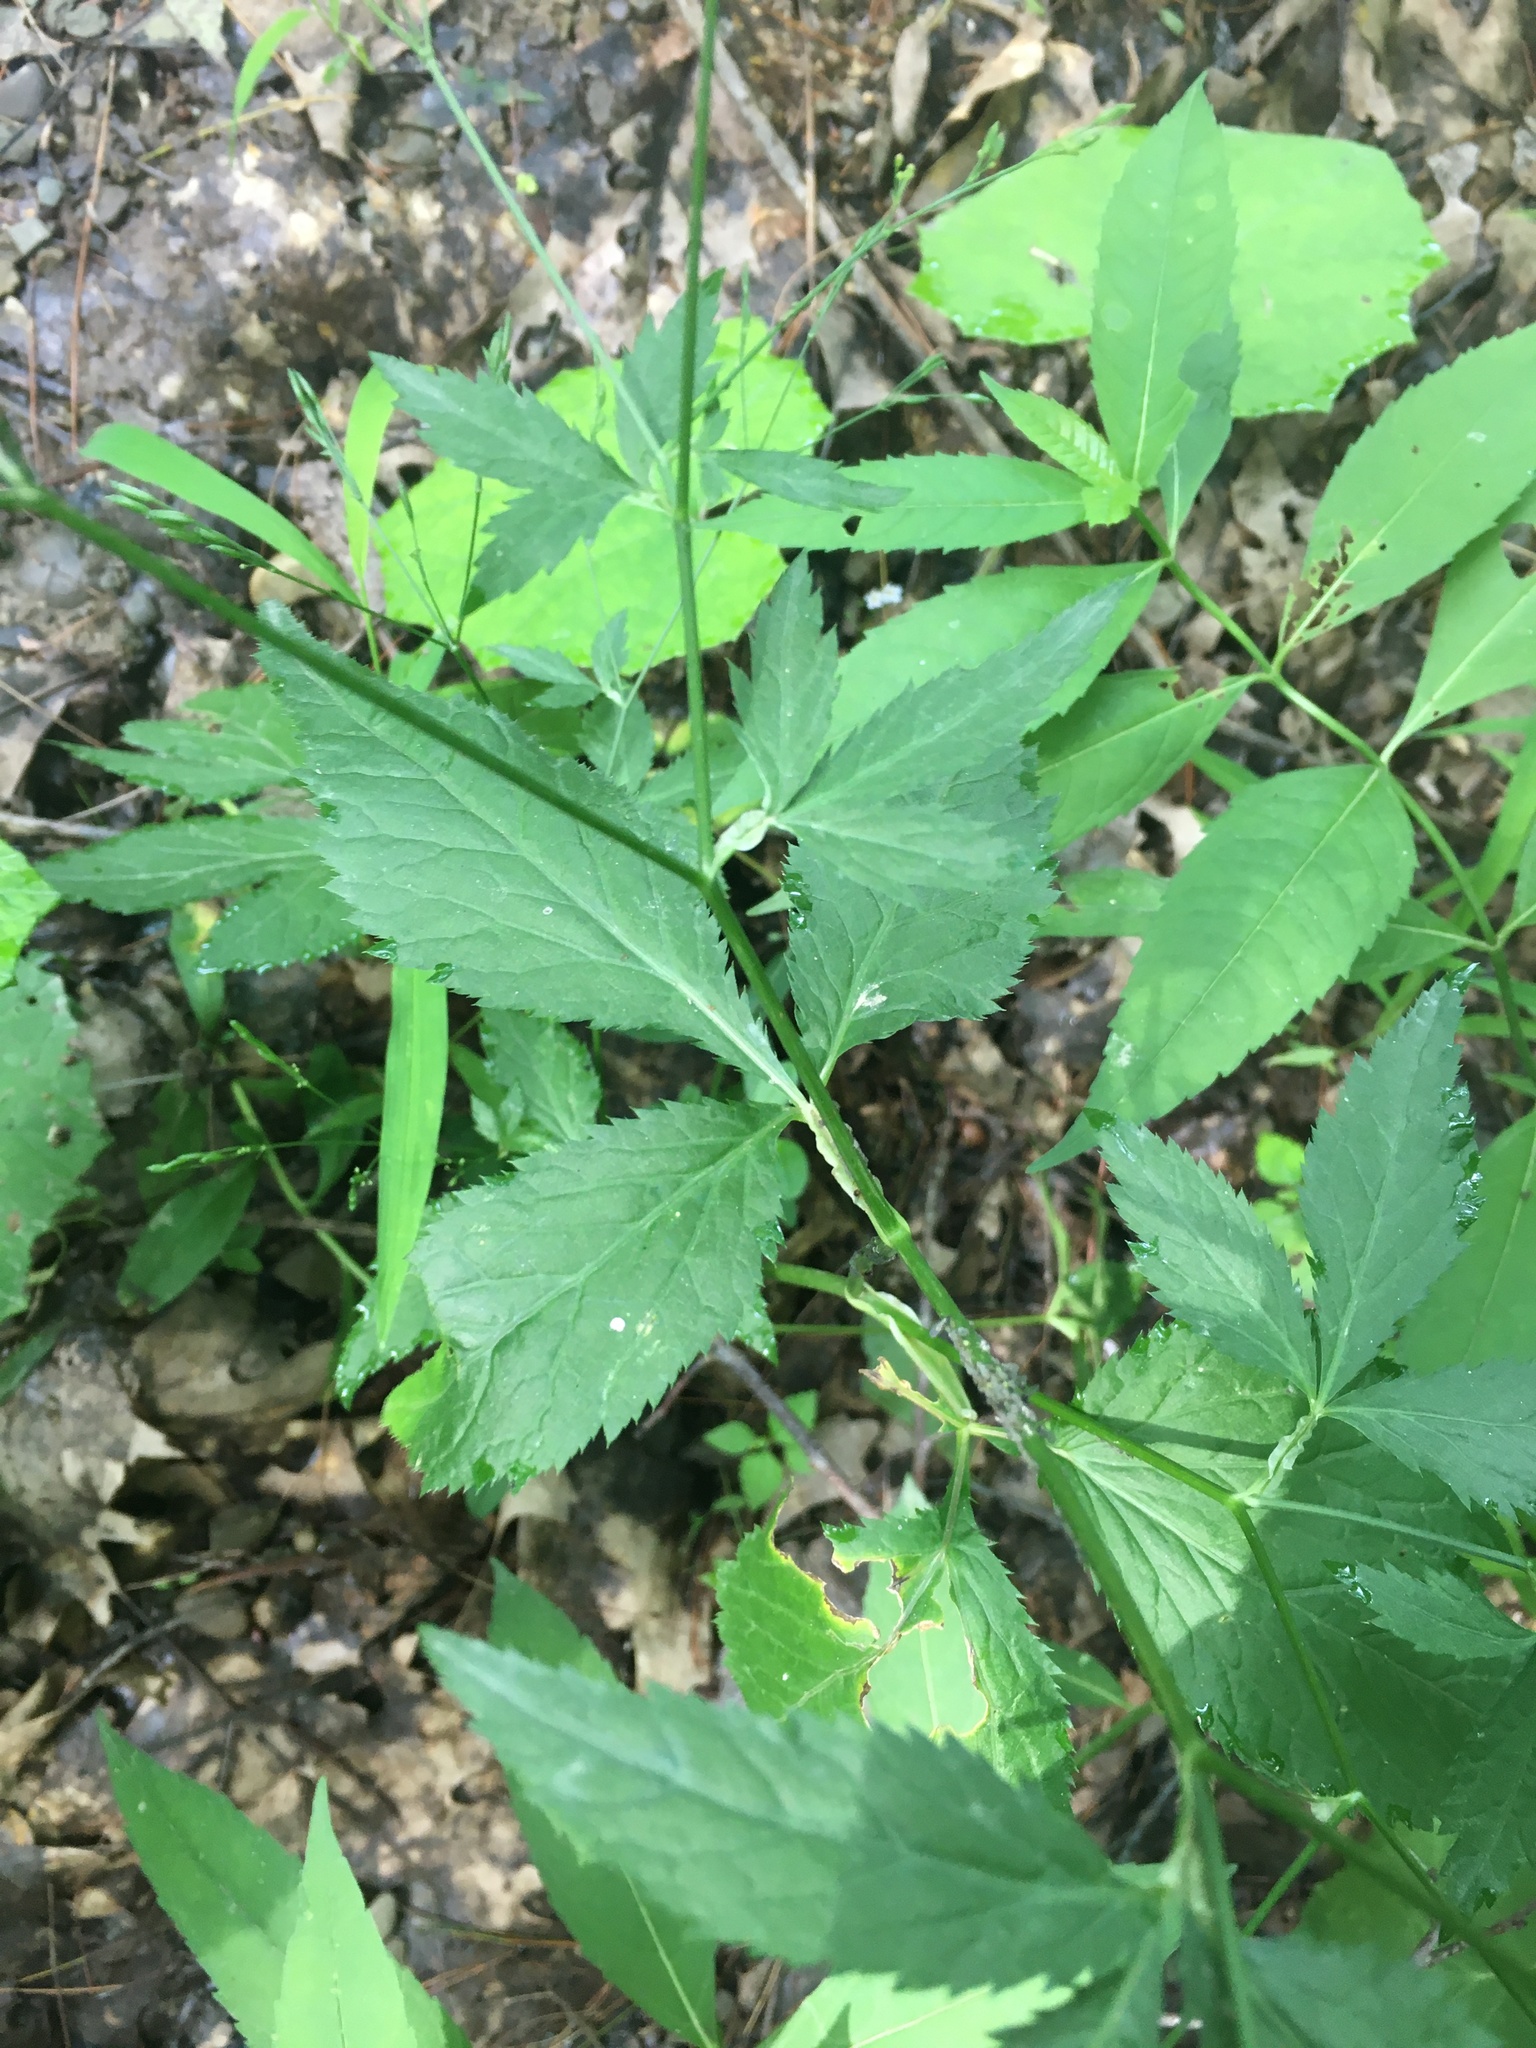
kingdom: Plantae
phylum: Tracheophyta
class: Magnoliopsida
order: Apiales
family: Apiaceae
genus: Cryptotaenia
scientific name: Cryptotaenia canadensis
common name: Honewort
